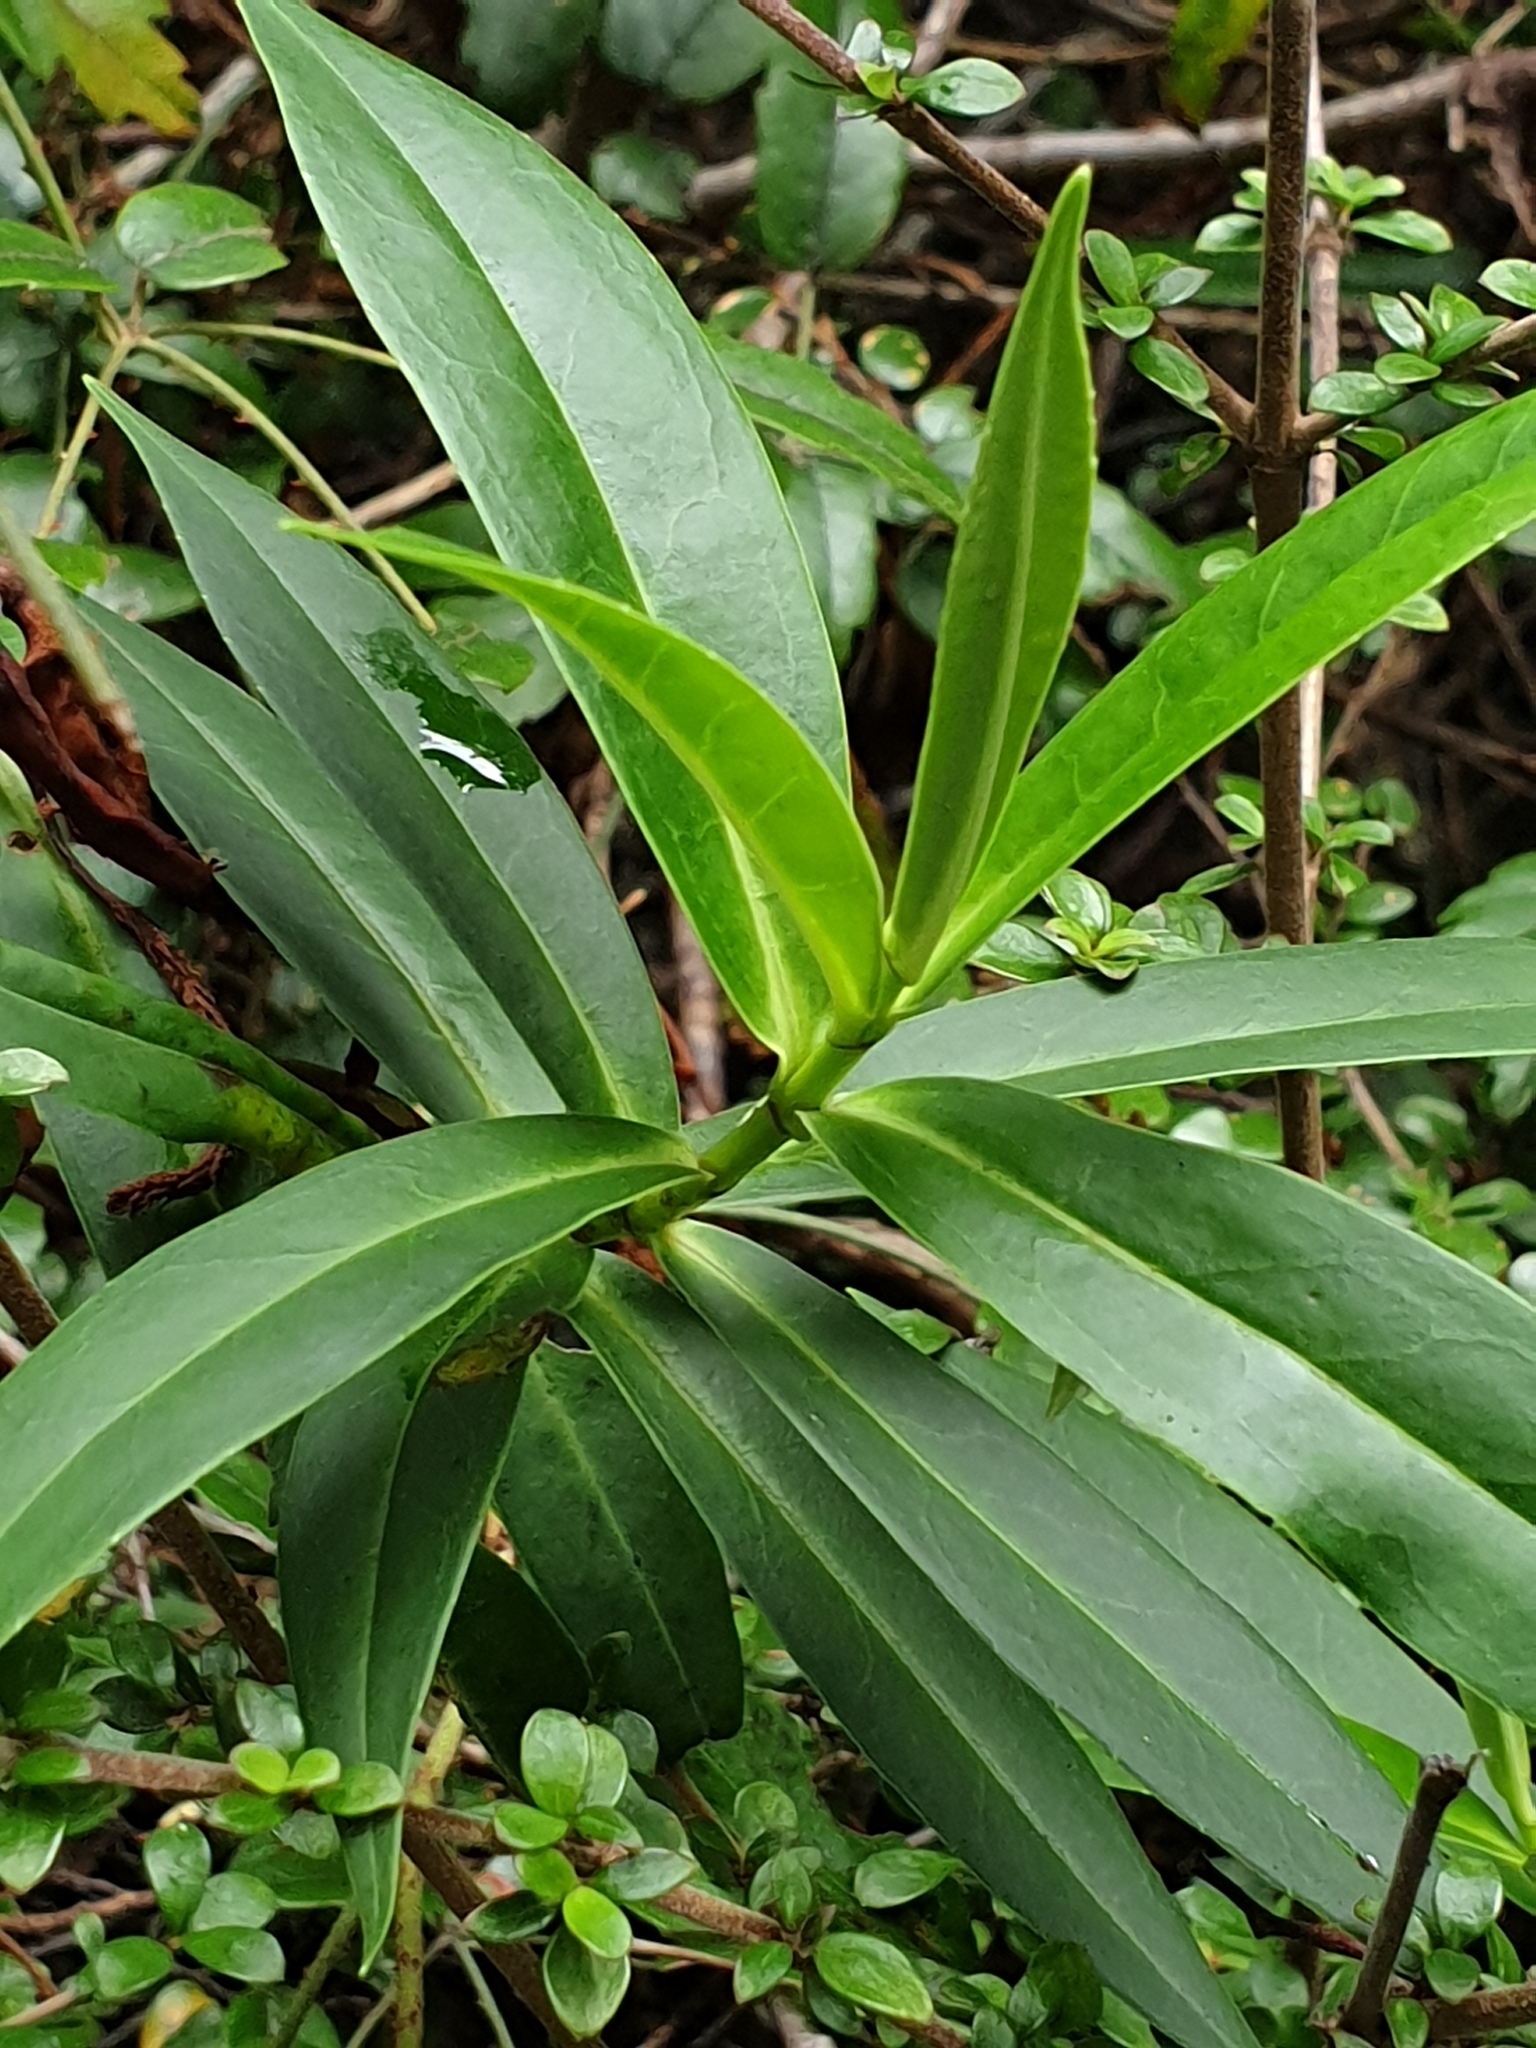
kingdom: Plantae
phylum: Tracheophyta
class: Magnoliopsida
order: Lamiales
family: Plantaginaceae
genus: Veronica
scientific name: Veronica salicifolia
